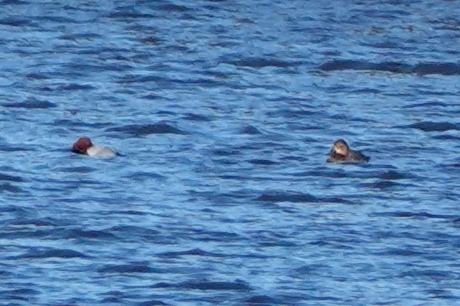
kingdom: Animalia
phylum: Chordata
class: Aves
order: Anseriformes
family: Anatidae
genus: Aythya
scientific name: Aythya ferina
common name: Common pochard
